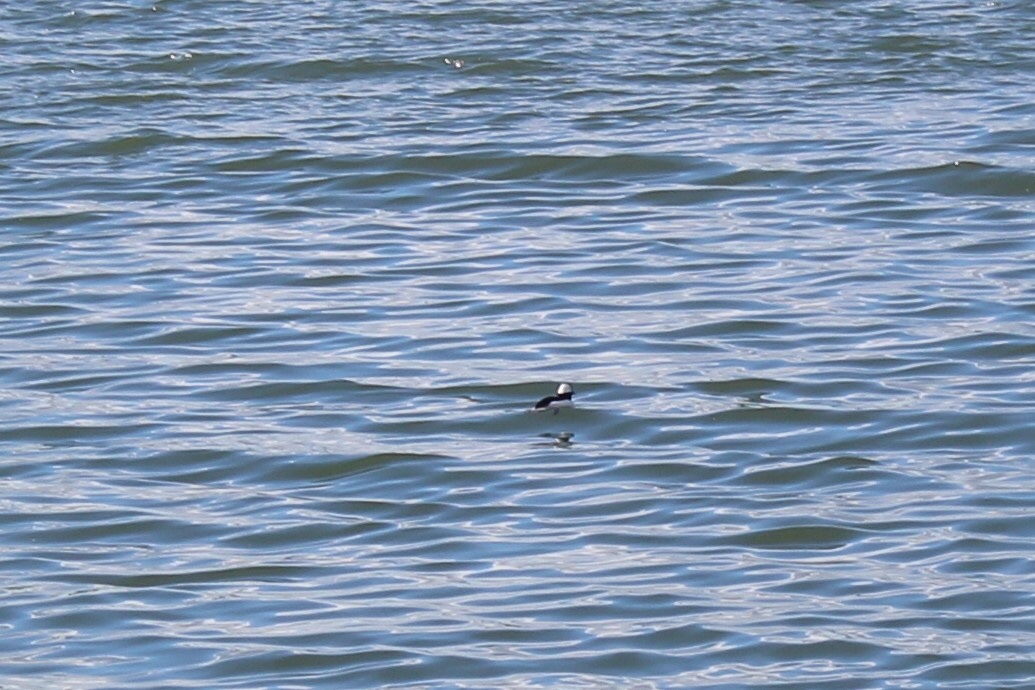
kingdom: Animalia
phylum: Chordata
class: Aves
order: Anseriformes
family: Anatidae
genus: Bucephala
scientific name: Bucephala albeola
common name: Bufflehead
